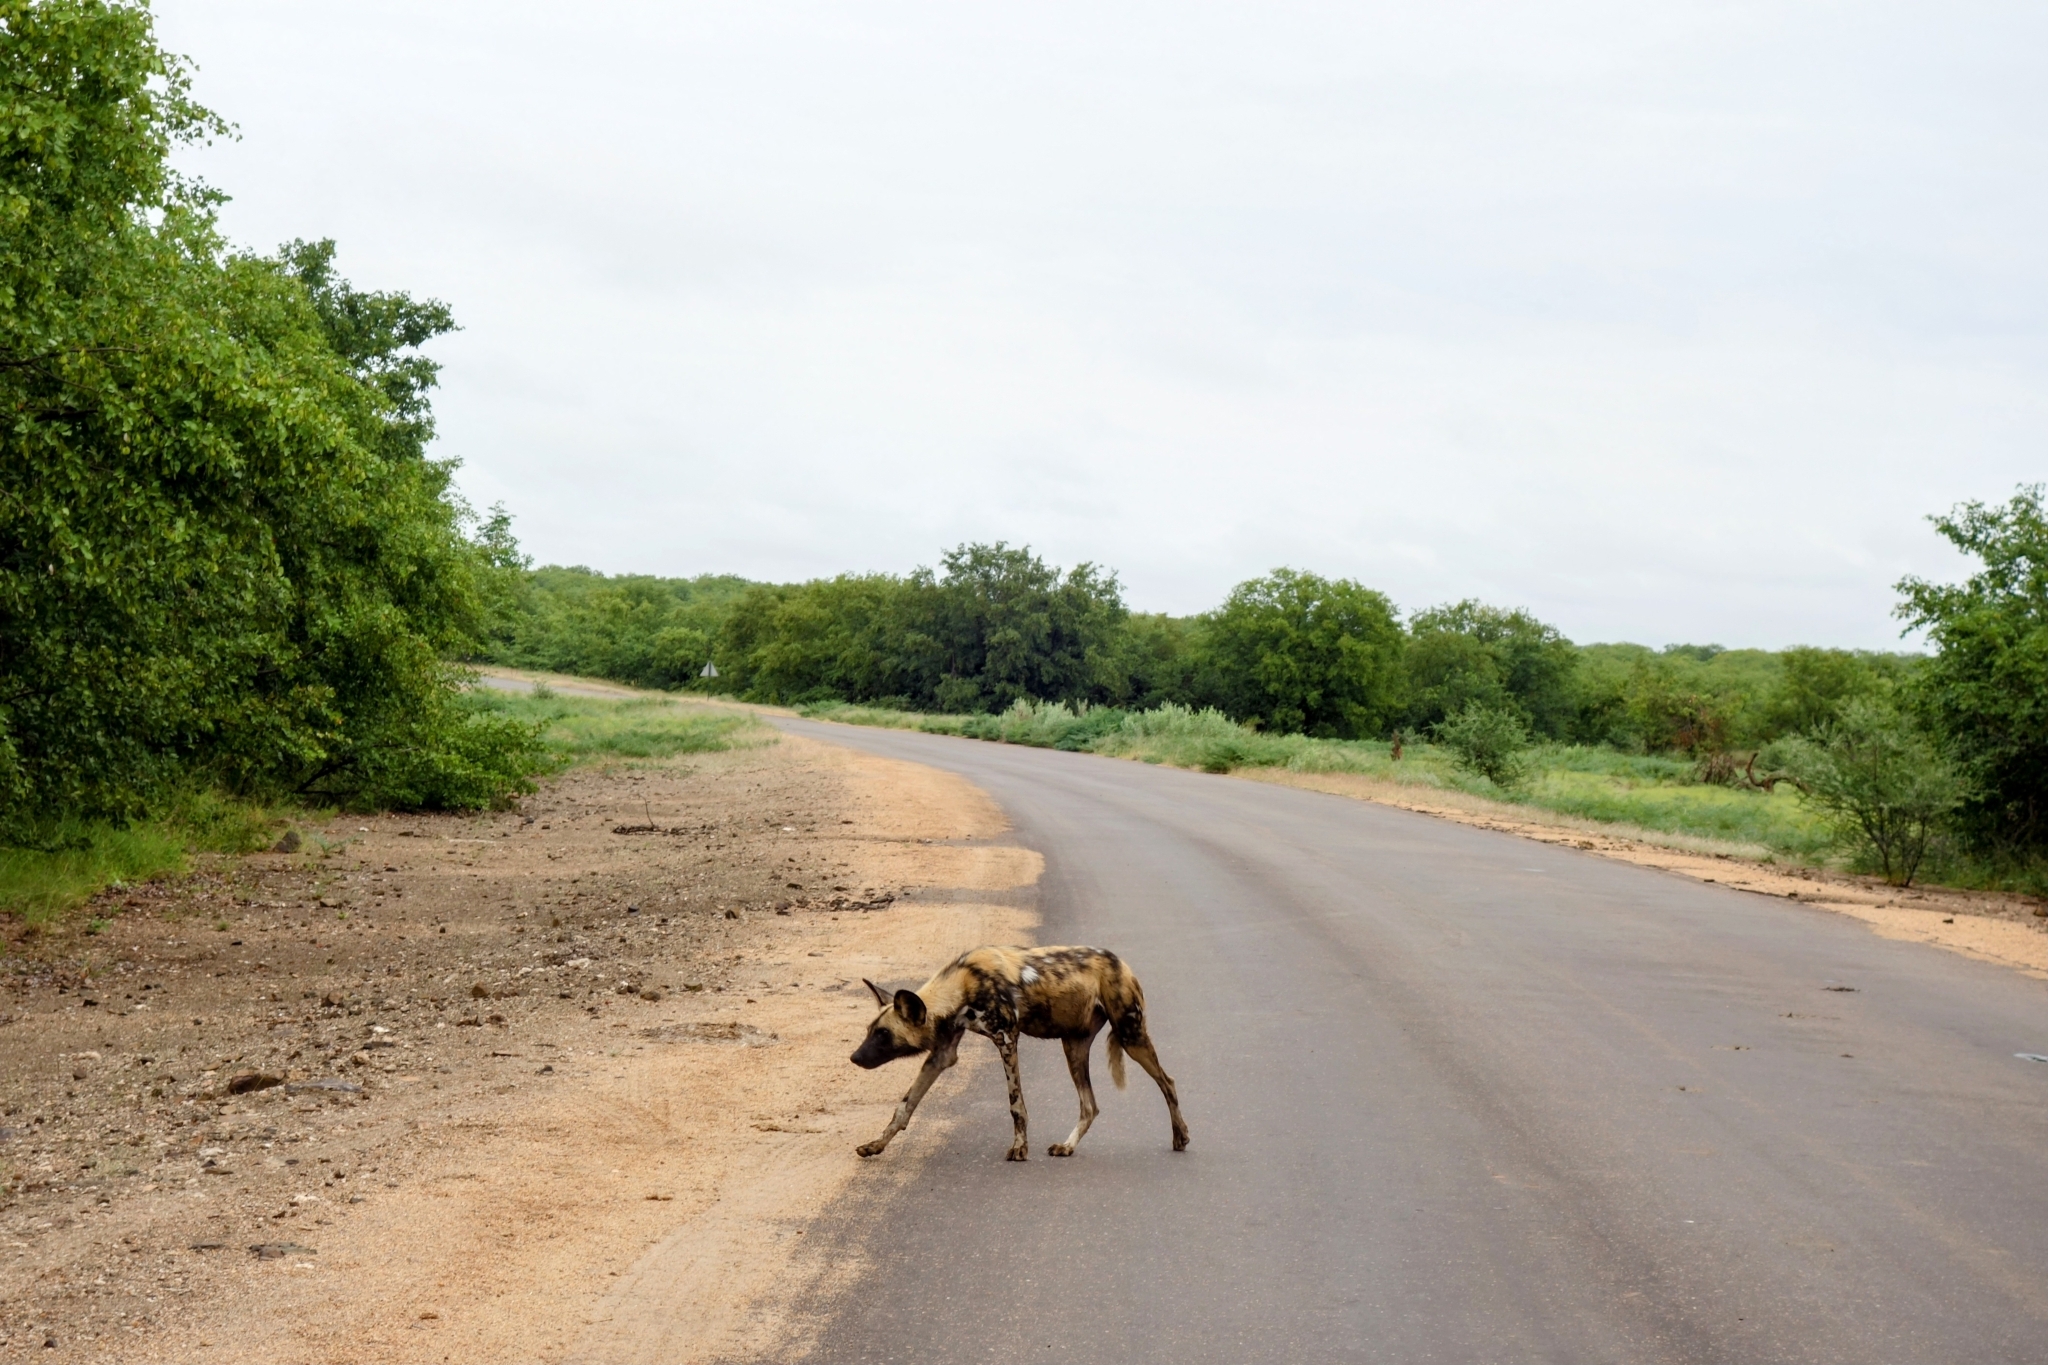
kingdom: Animalia
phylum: Chordata
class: Mammalia
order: Carnivora
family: Canidae
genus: Lycaon
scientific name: Lycaon pictus
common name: African wild dog
